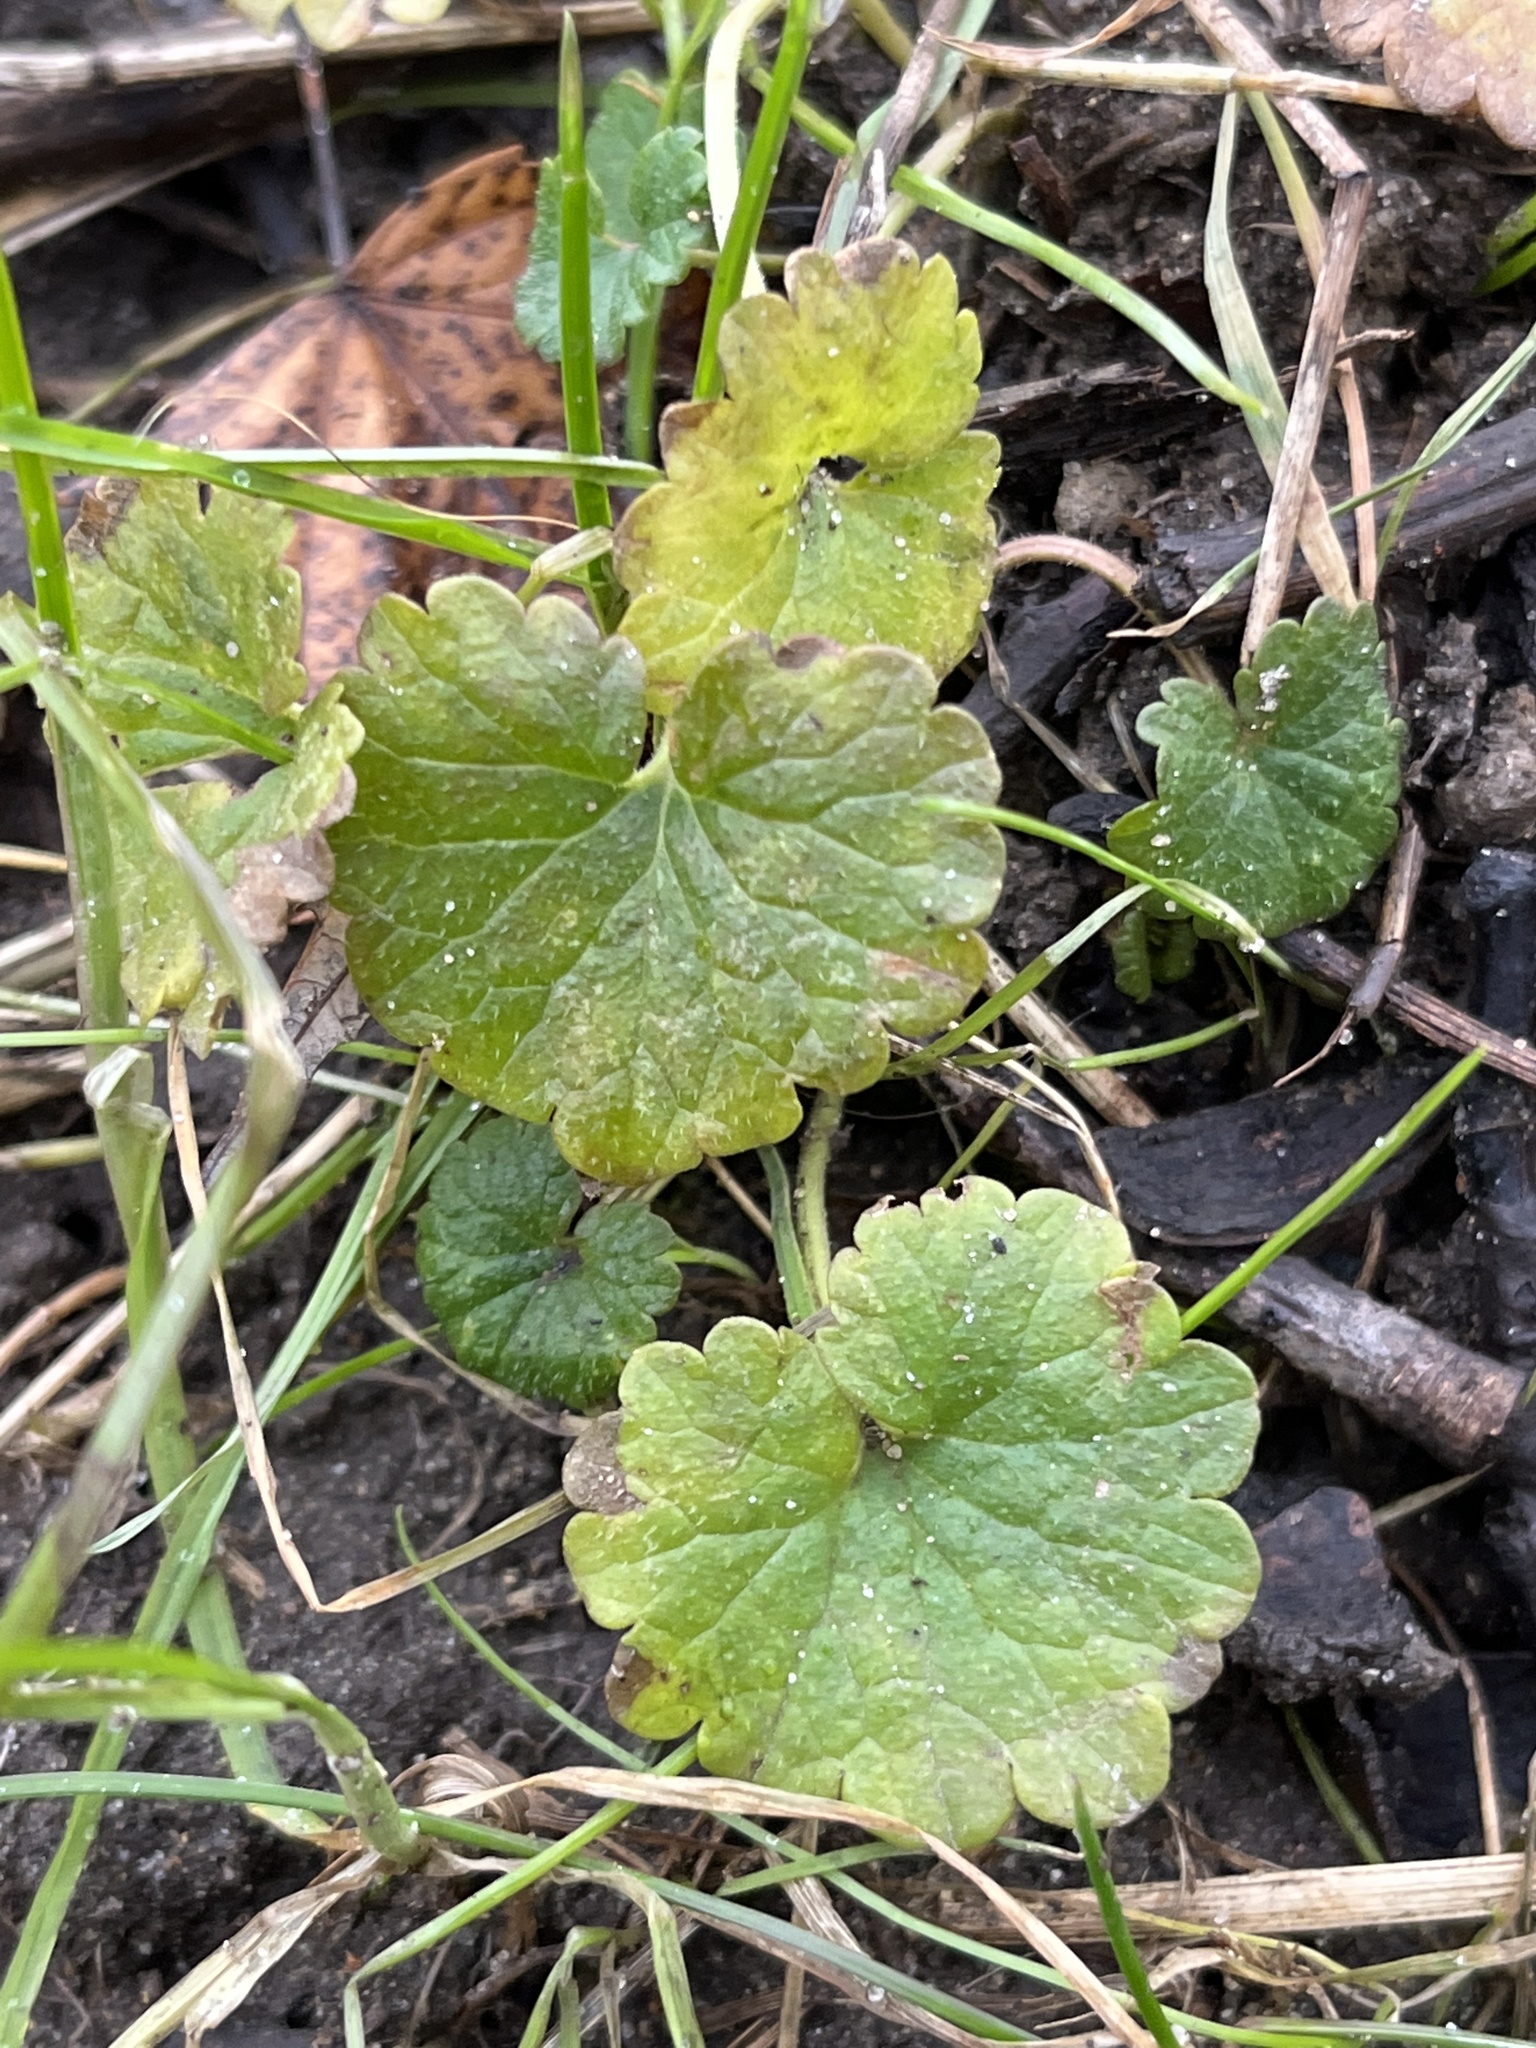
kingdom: Plantae
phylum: Tracheophyta
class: Magnoliopsida
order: Lamiales
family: Lamiaceae
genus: Glechoma
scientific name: Glechoma hederacea
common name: Ground ivy
